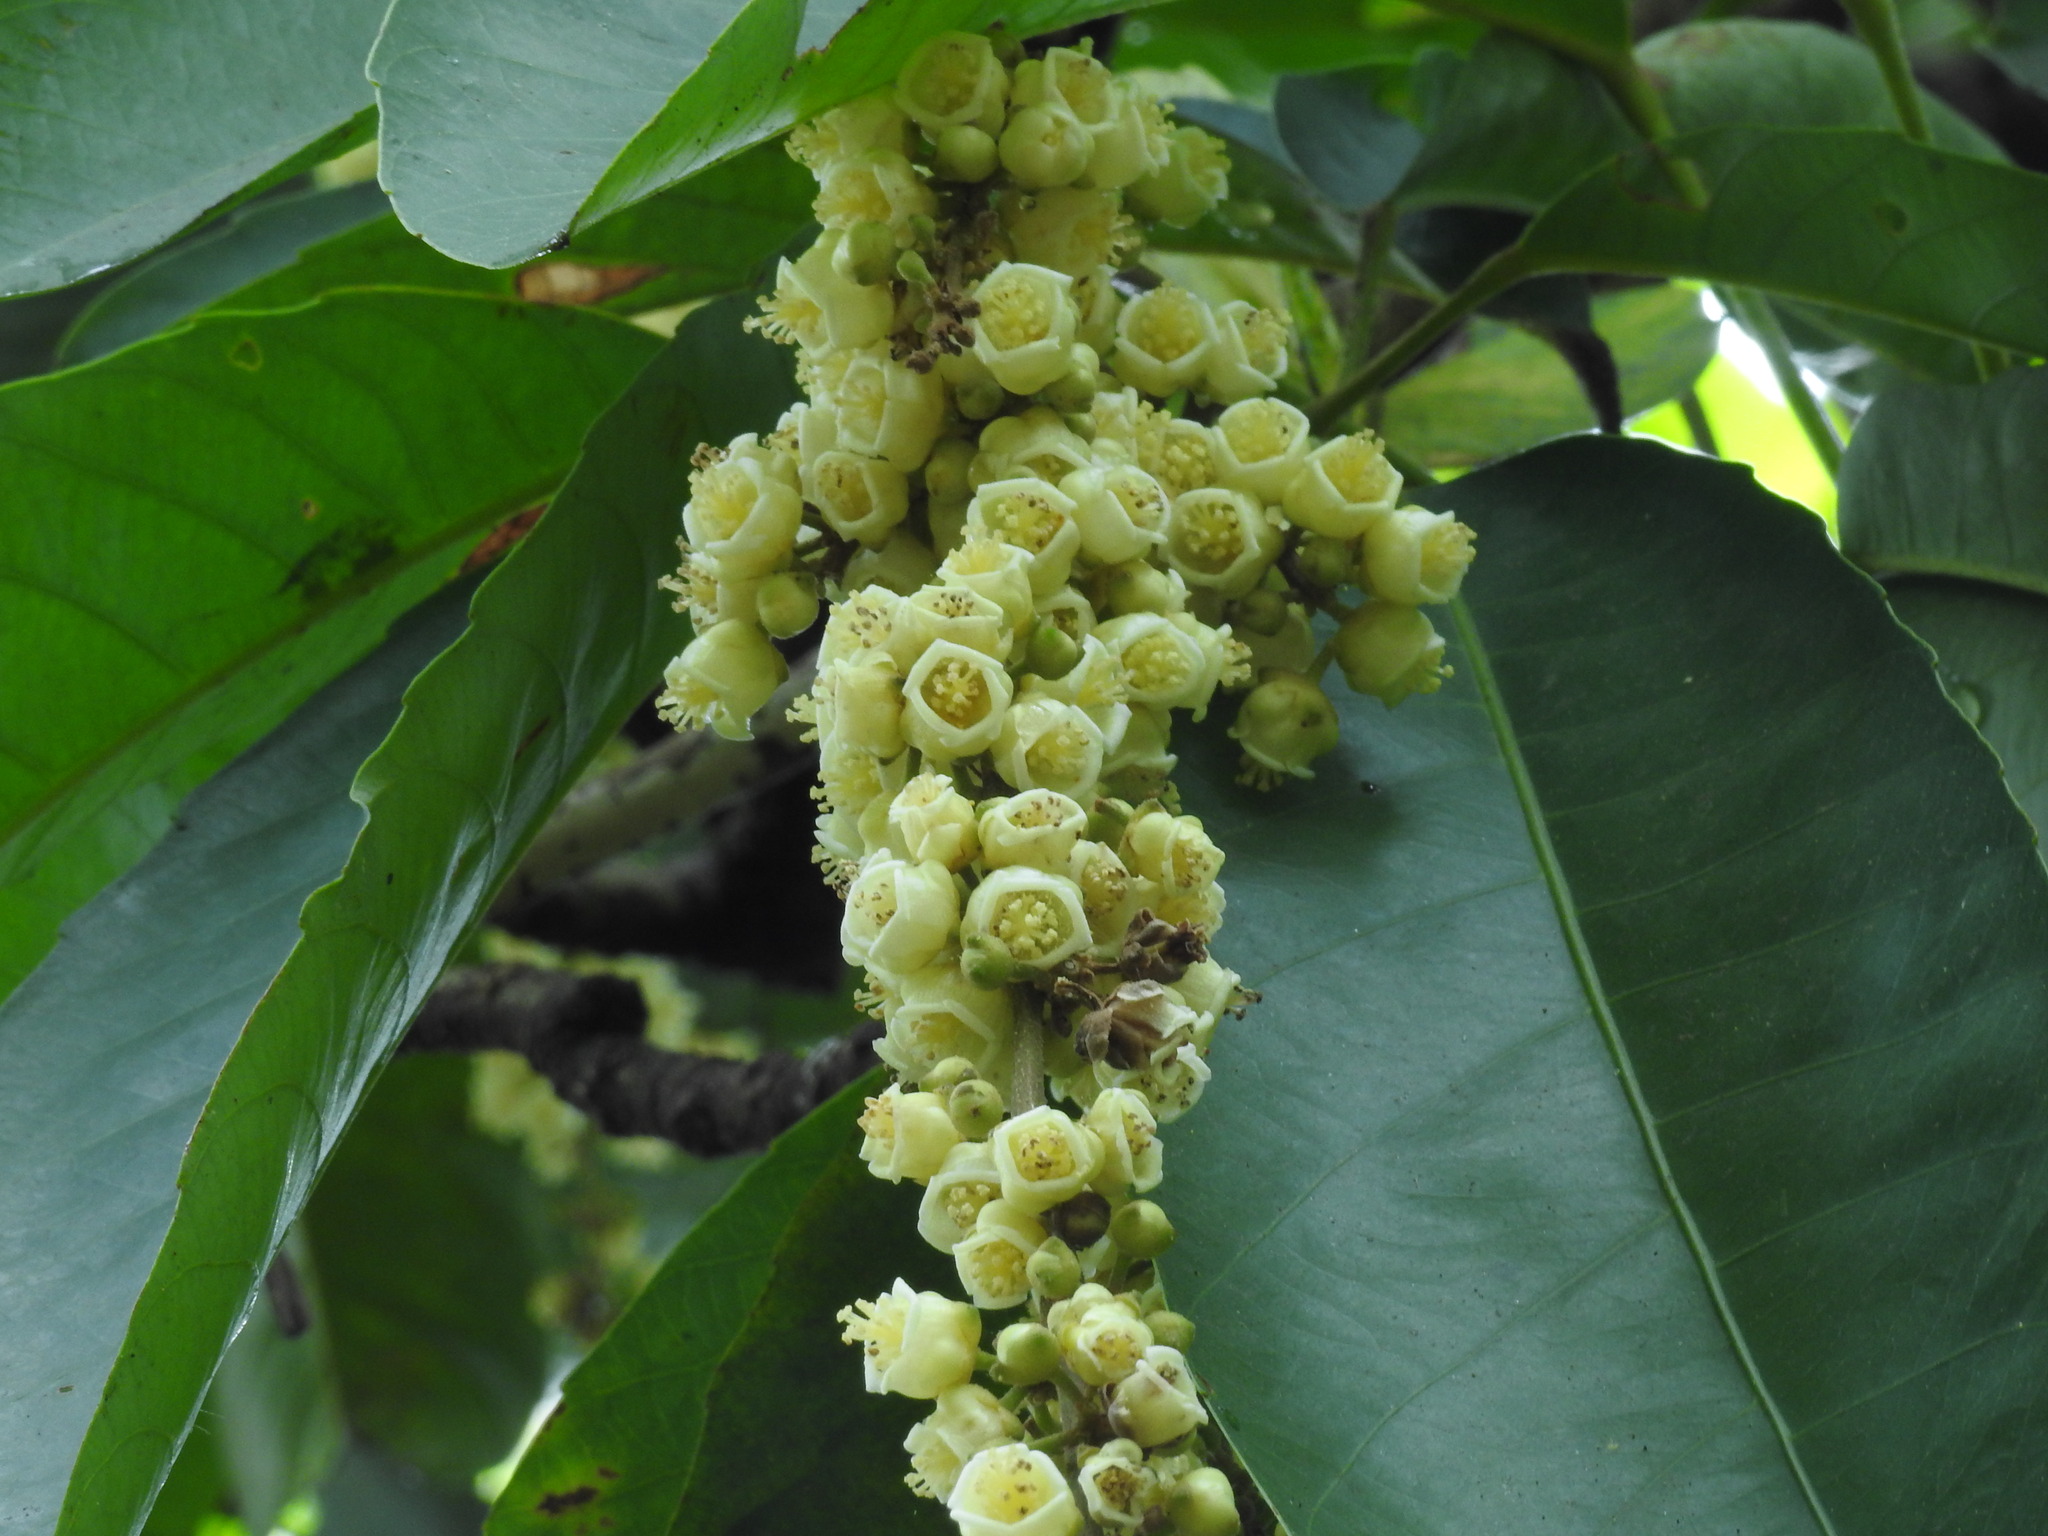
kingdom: Plantae
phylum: Tracheophyta
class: Magnoliopsida
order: Malpighiales
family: Euphorbiaceae
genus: Paracroton
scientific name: Paracroton pendulus
